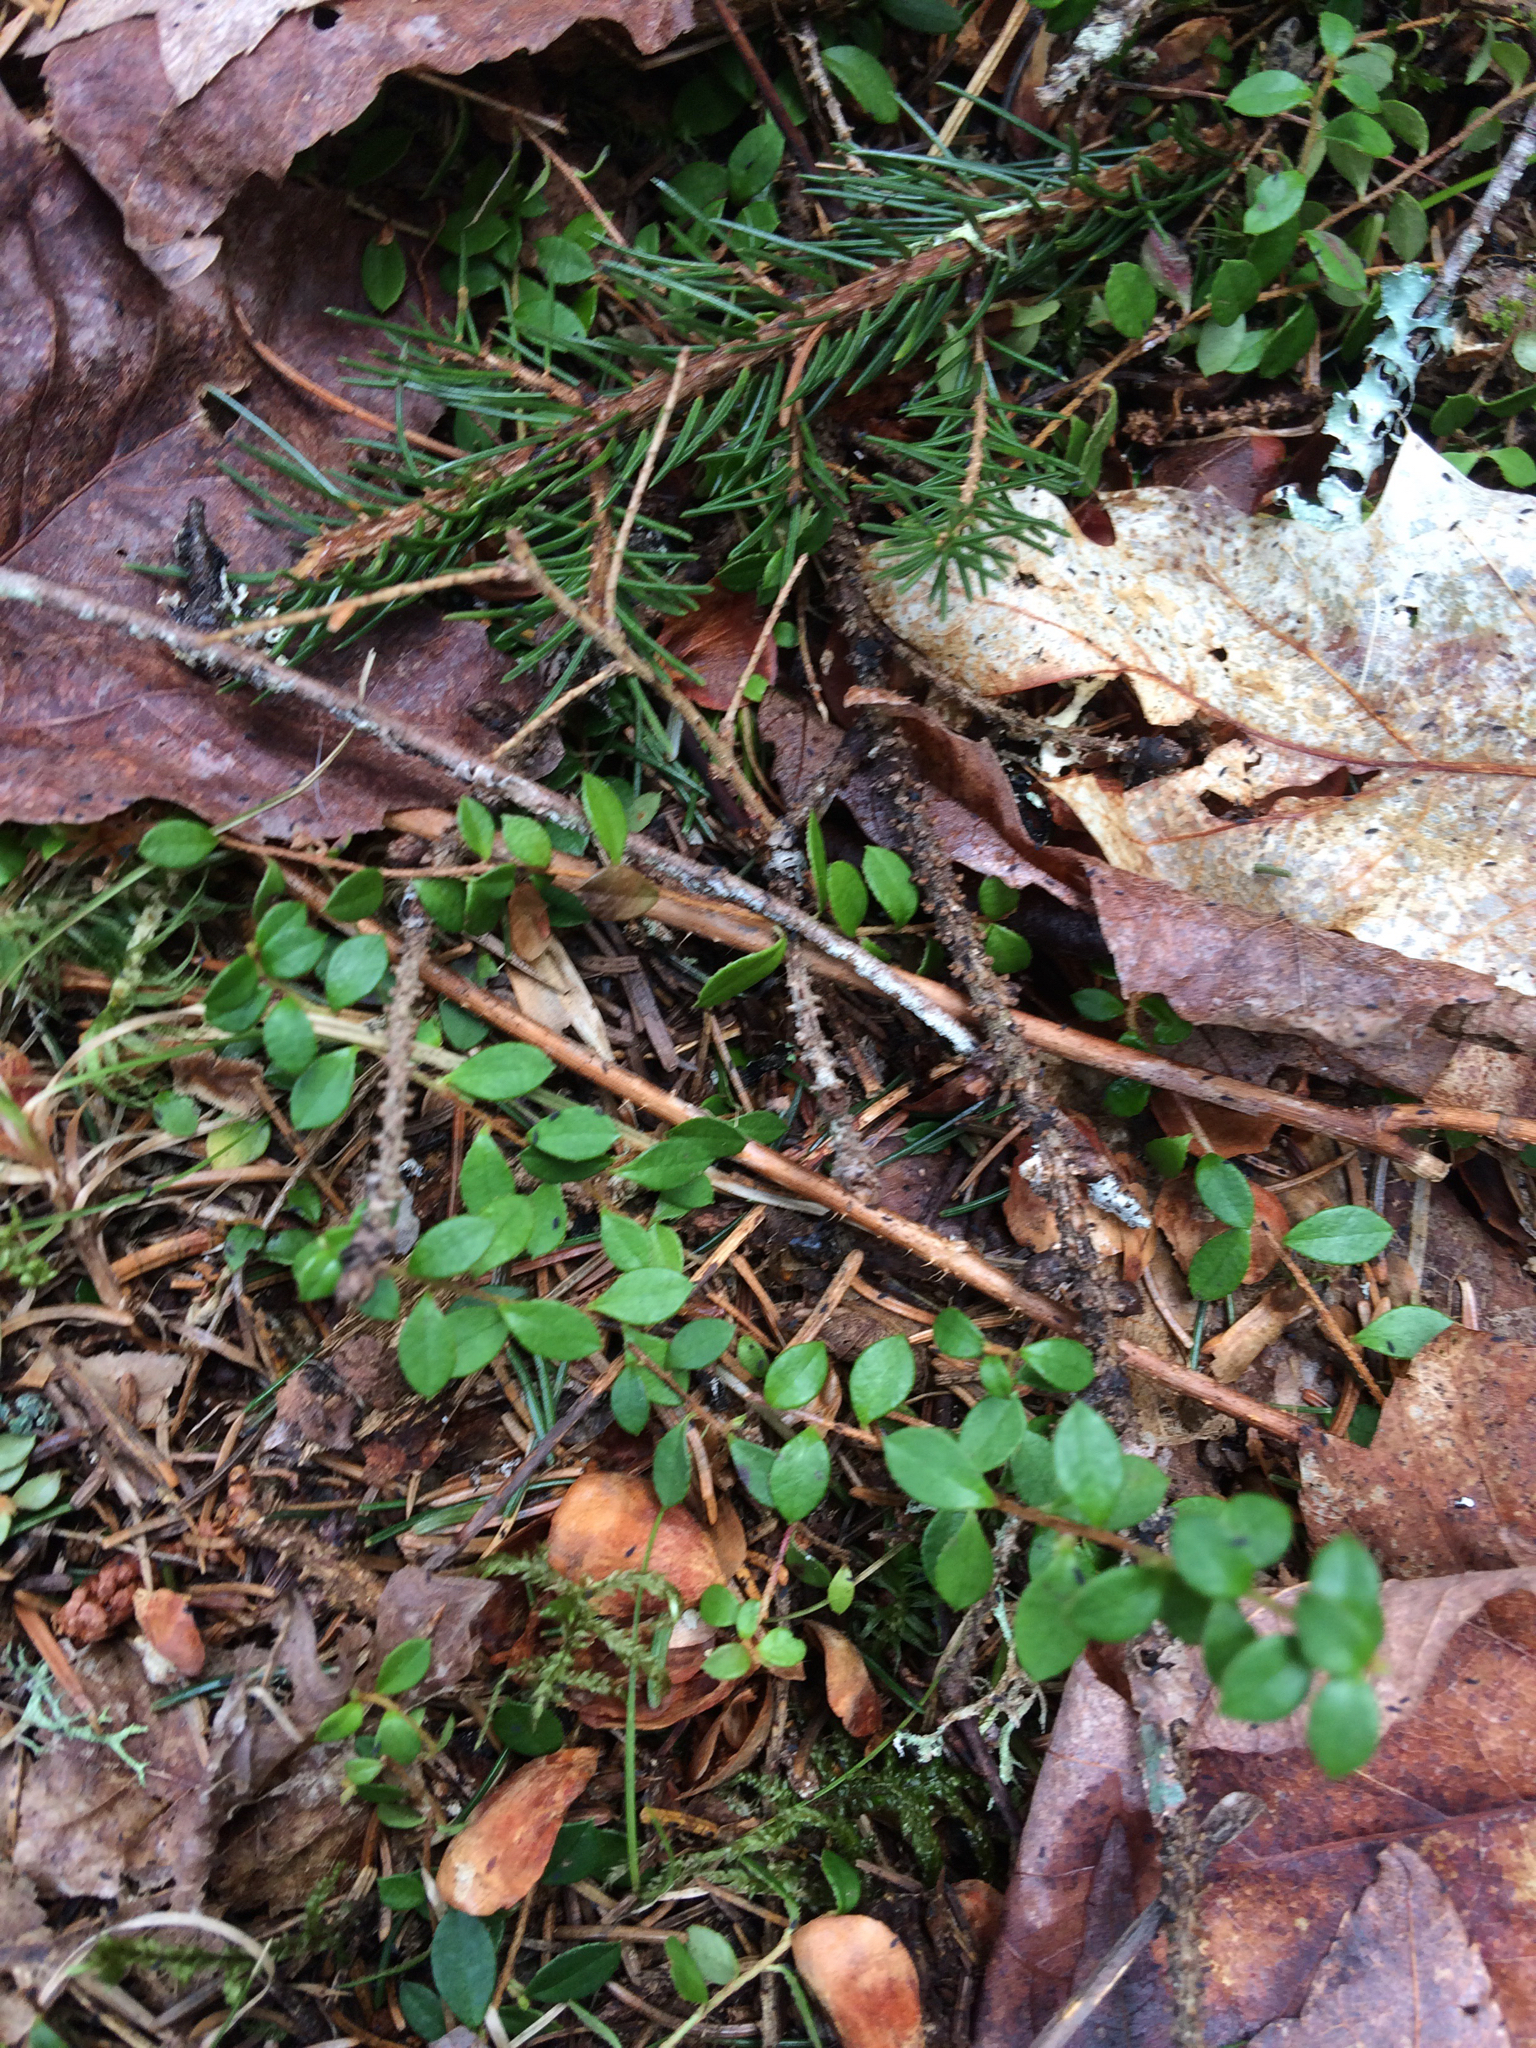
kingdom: Plantae
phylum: Tracheophyta
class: Magnoliopsida
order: Ericales
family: Ericaceae
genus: Gaultheria
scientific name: Gaultheria hispidula
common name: Cancer wintergreen
